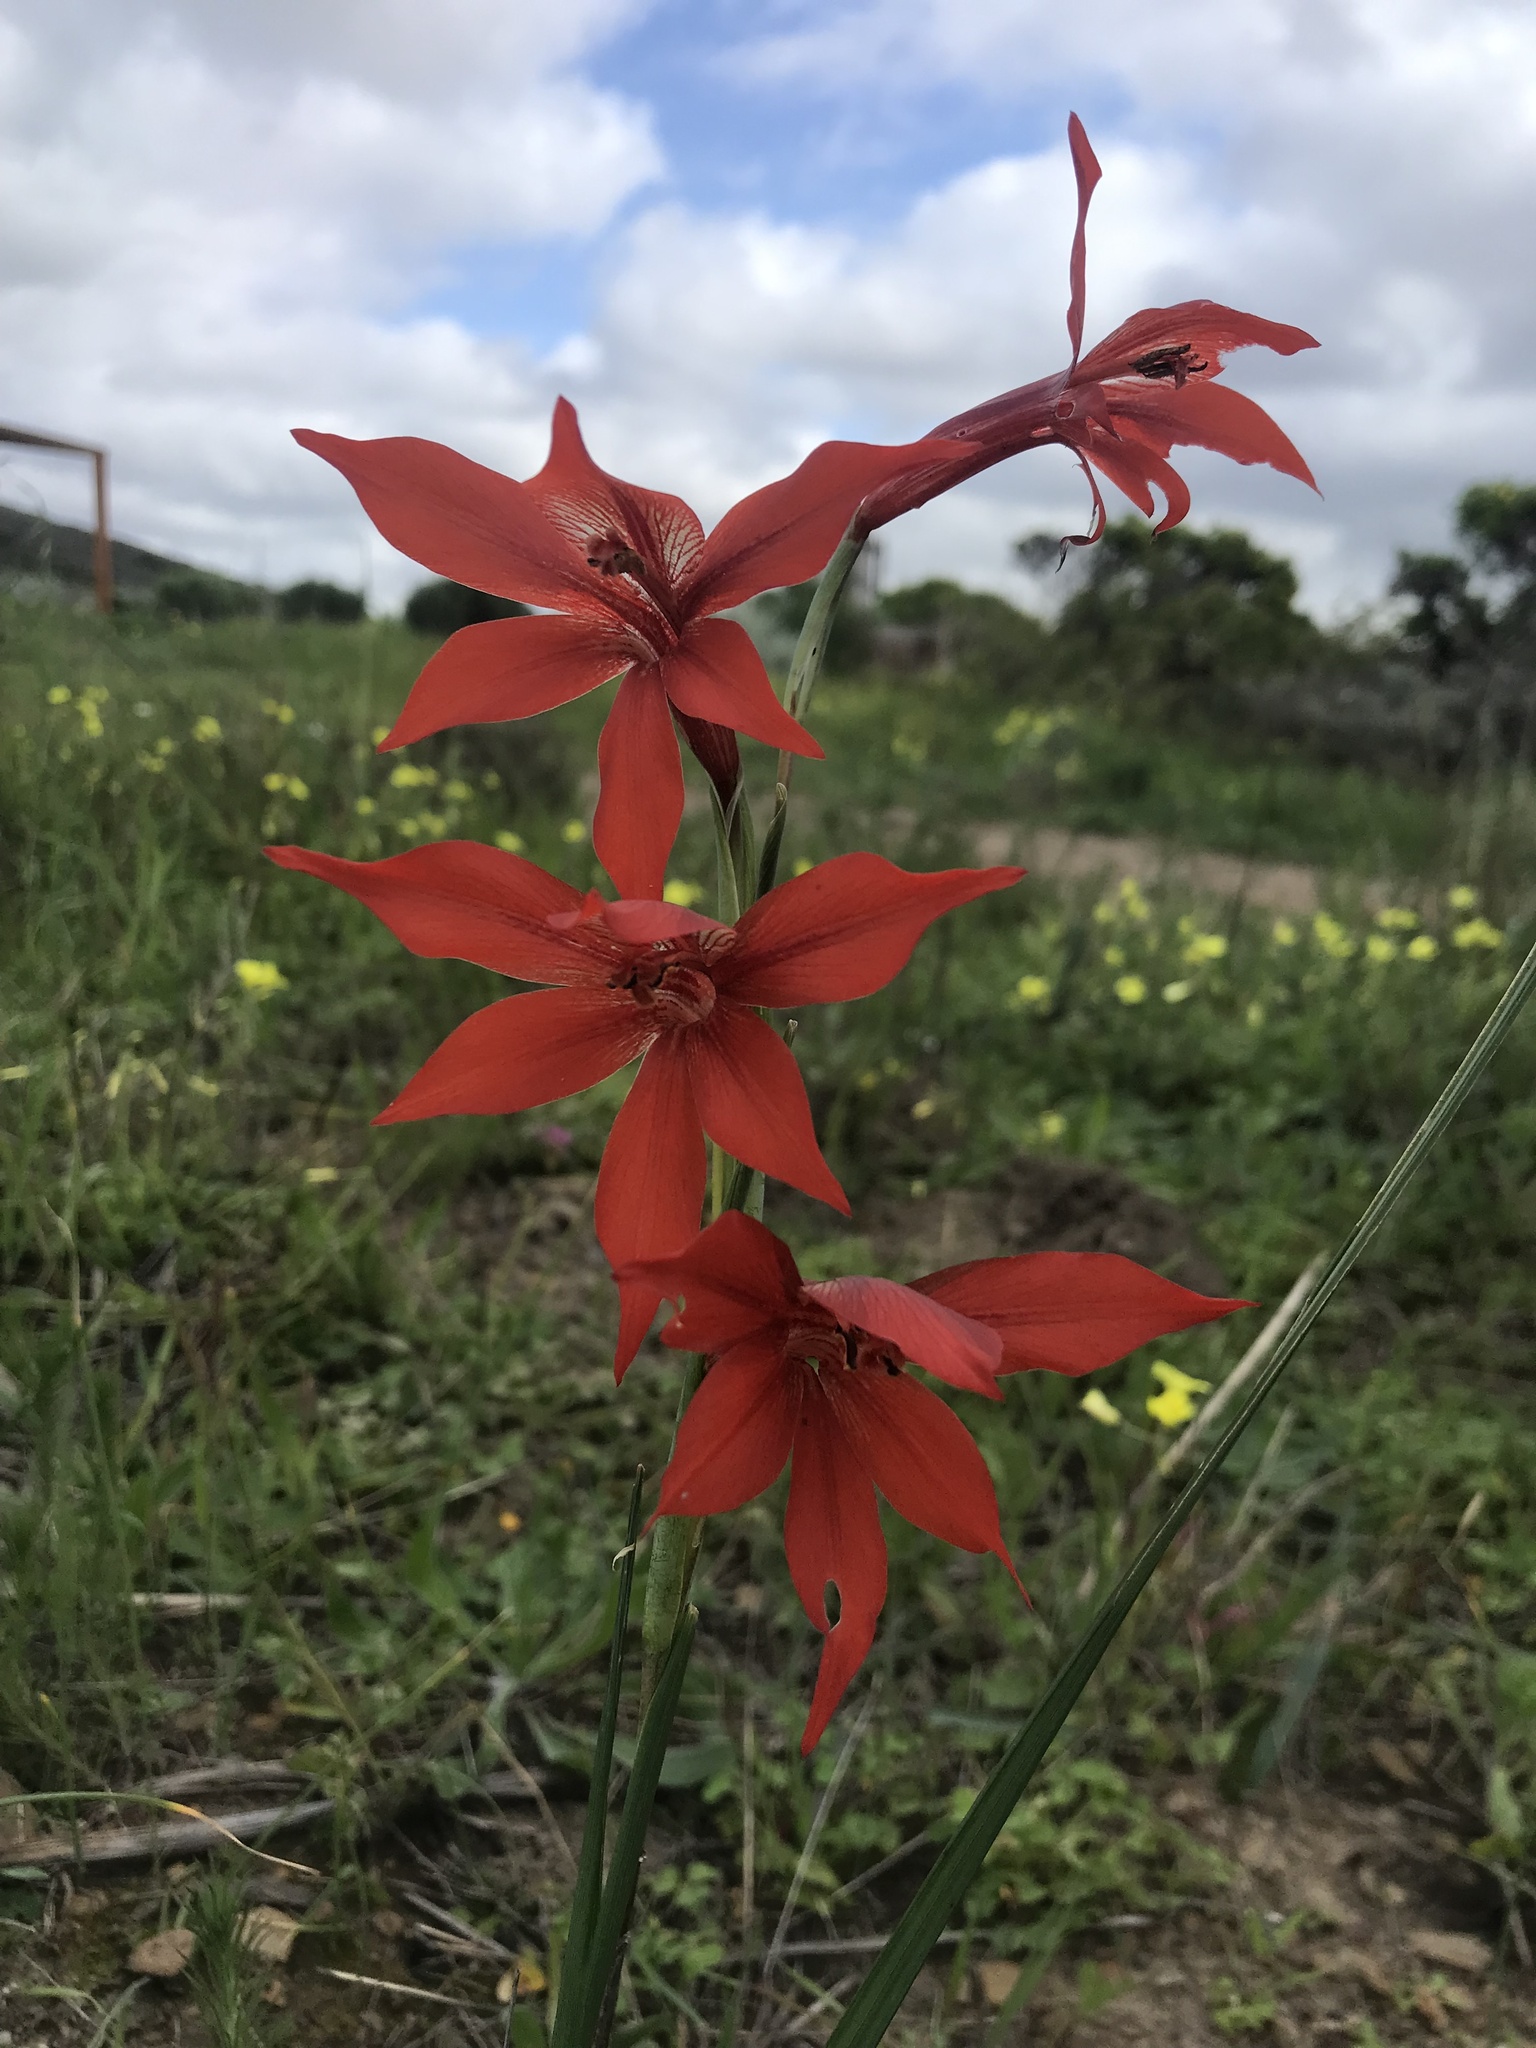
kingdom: Plantae
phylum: Tracheophyta
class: Liliopsida
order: Asparagales
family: Iridaceae
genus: Gladiolus
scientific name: Gladiolus watsonius
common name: Red afrikaner
